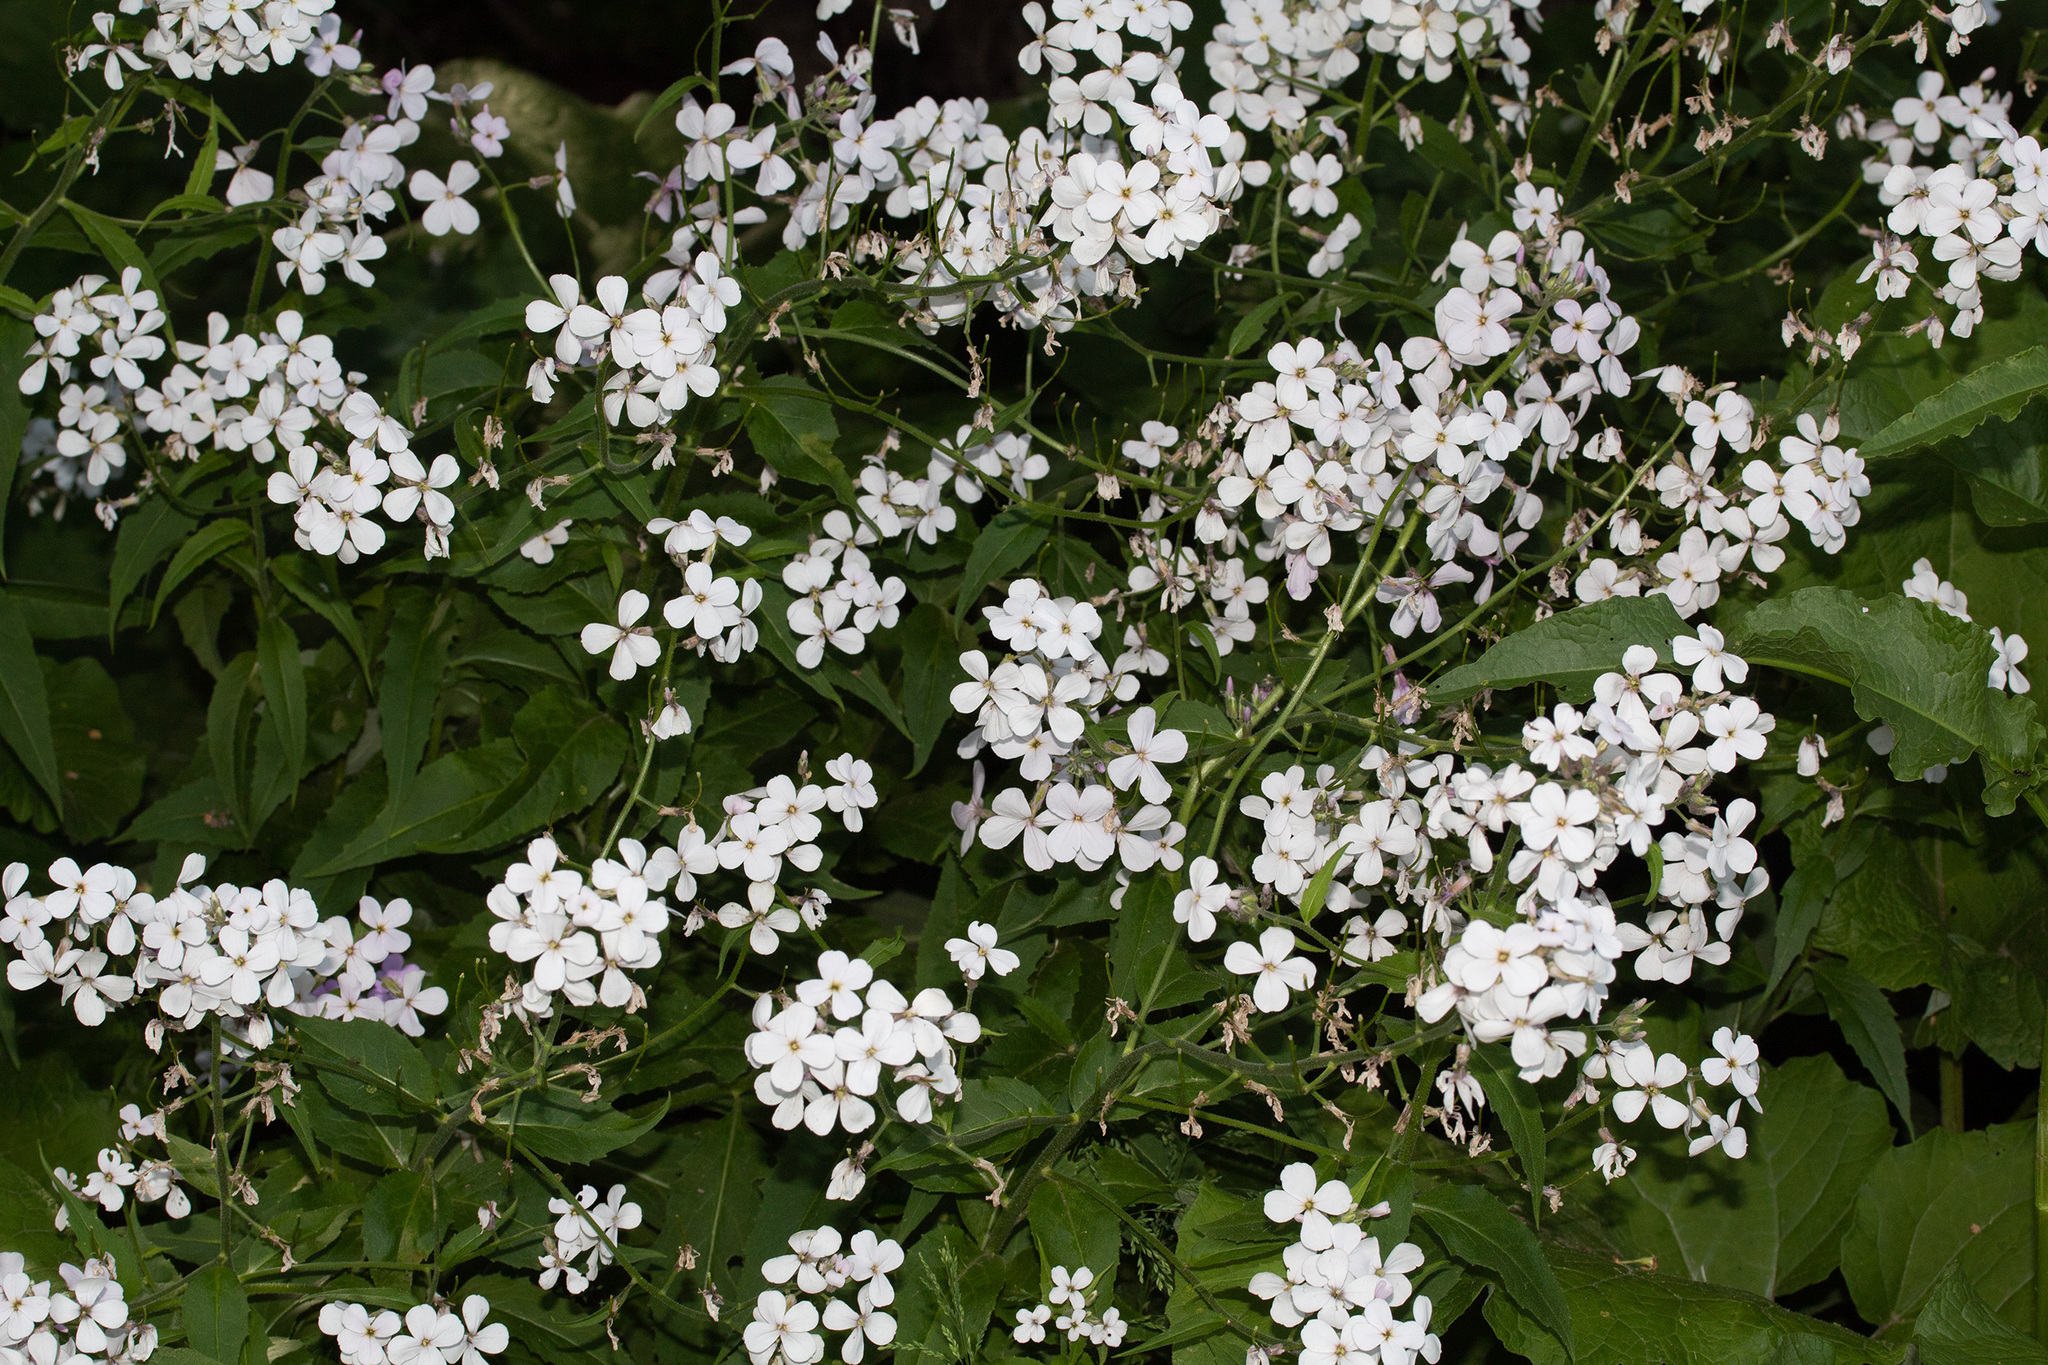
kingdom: Plantae
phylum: Tracheophyta
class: Magnoliopsida
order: Brassicales
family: Brassicaceae
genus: Hesperis
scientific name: Hesperis matronalis
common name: Dame's-violet
